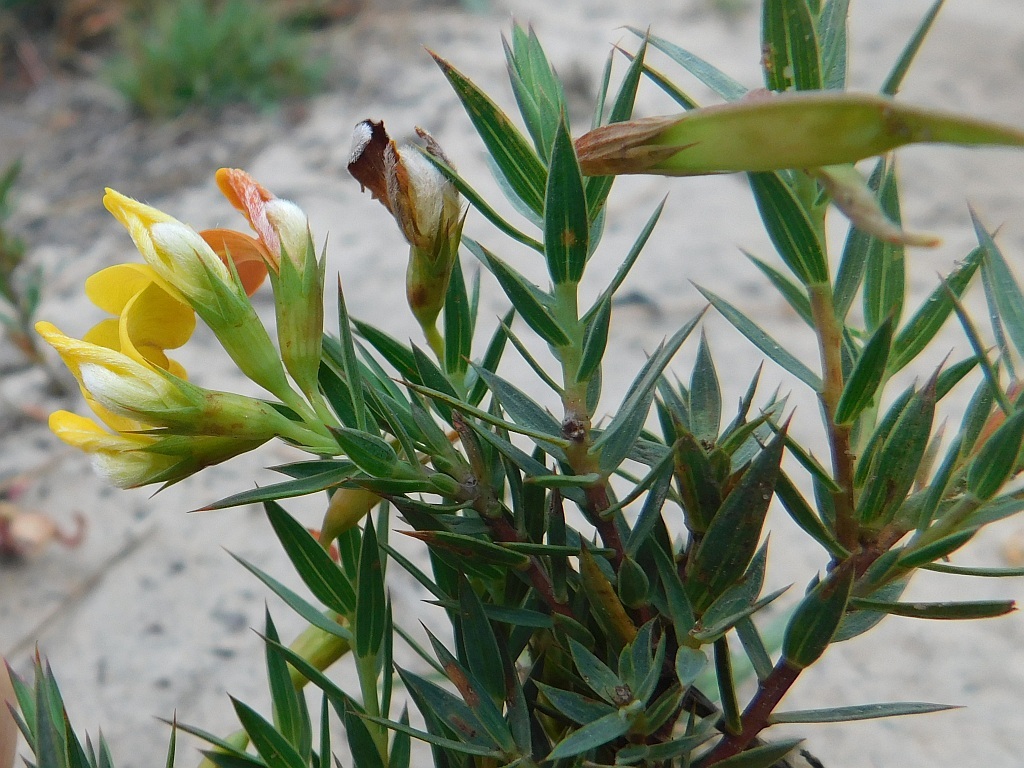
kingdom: Plantae
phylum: Tracheophyta
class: Magnoliopsida
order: Fabales
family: Fabaceae
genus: Aspalathus
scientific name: Aspalathus angustifolia
